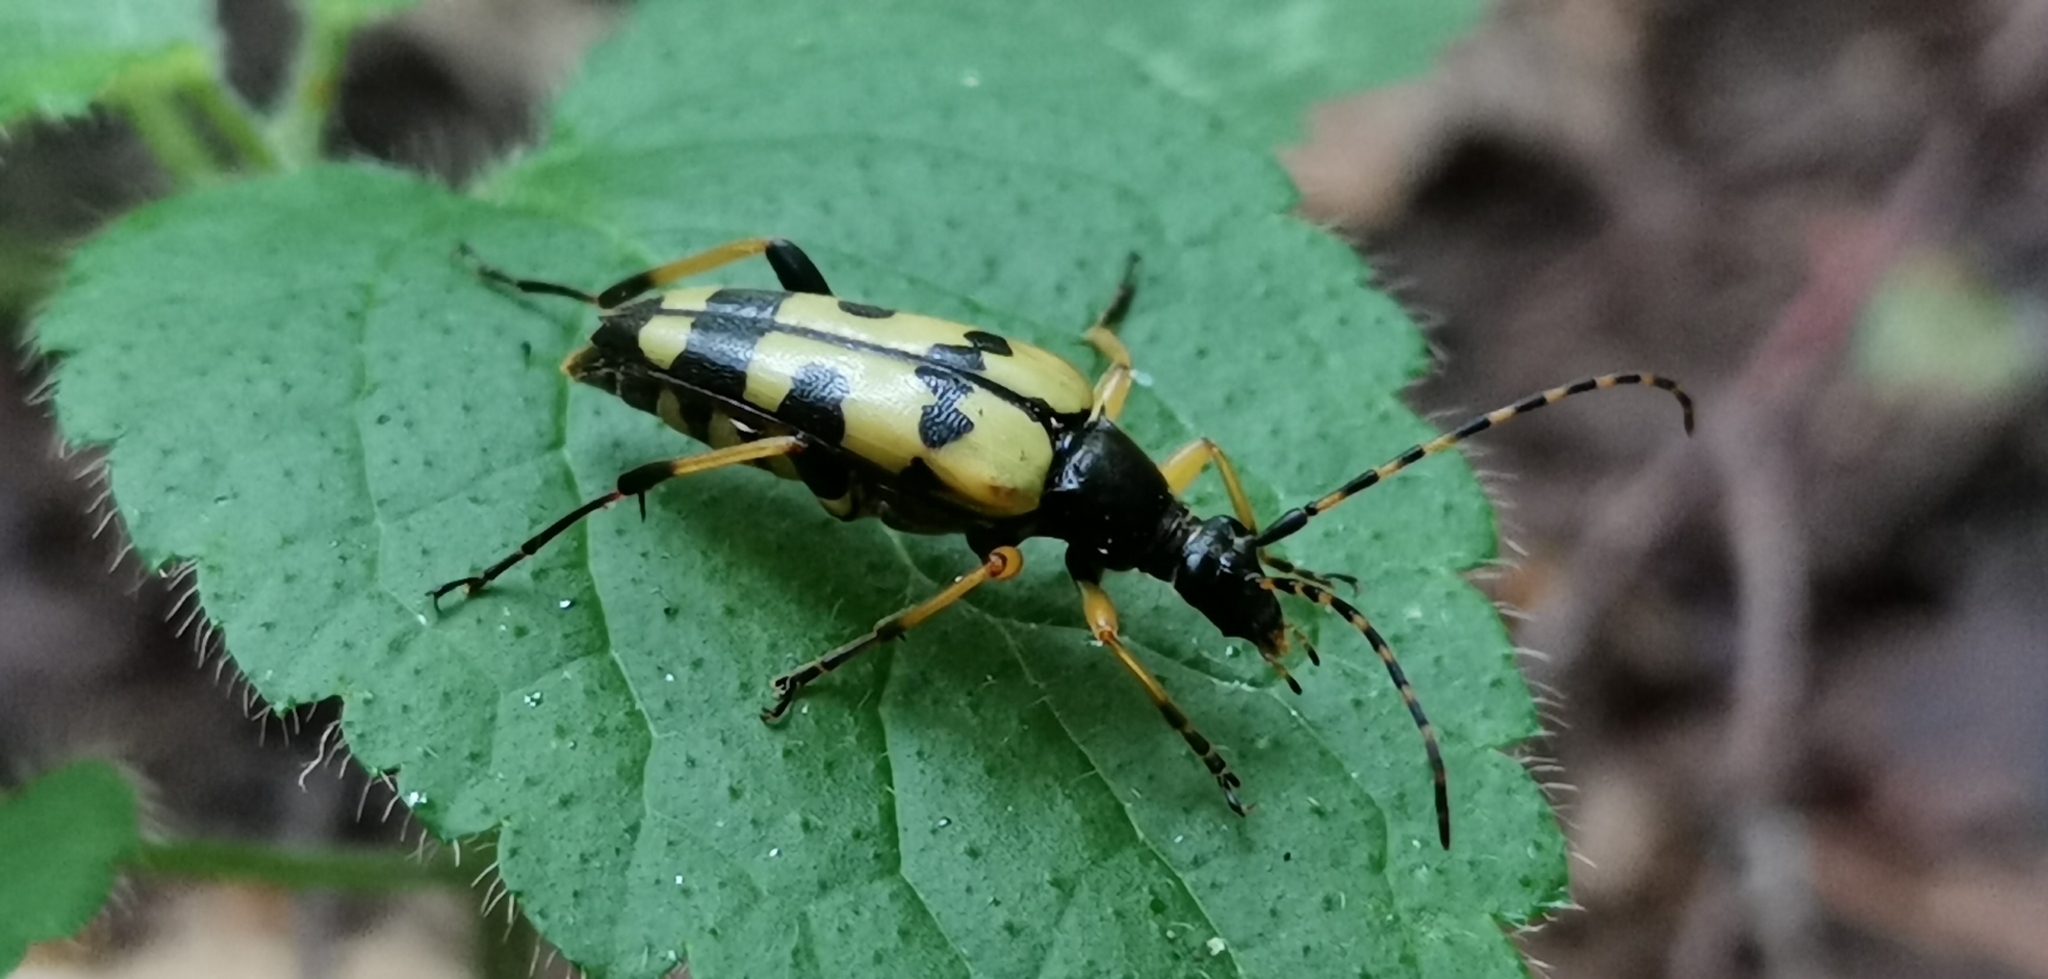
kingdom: Animalia
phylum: Arthropoda
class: Insecta
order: Coleoptera
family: Cerambycidae
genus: Rutpela
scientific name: Rutpela maculata
